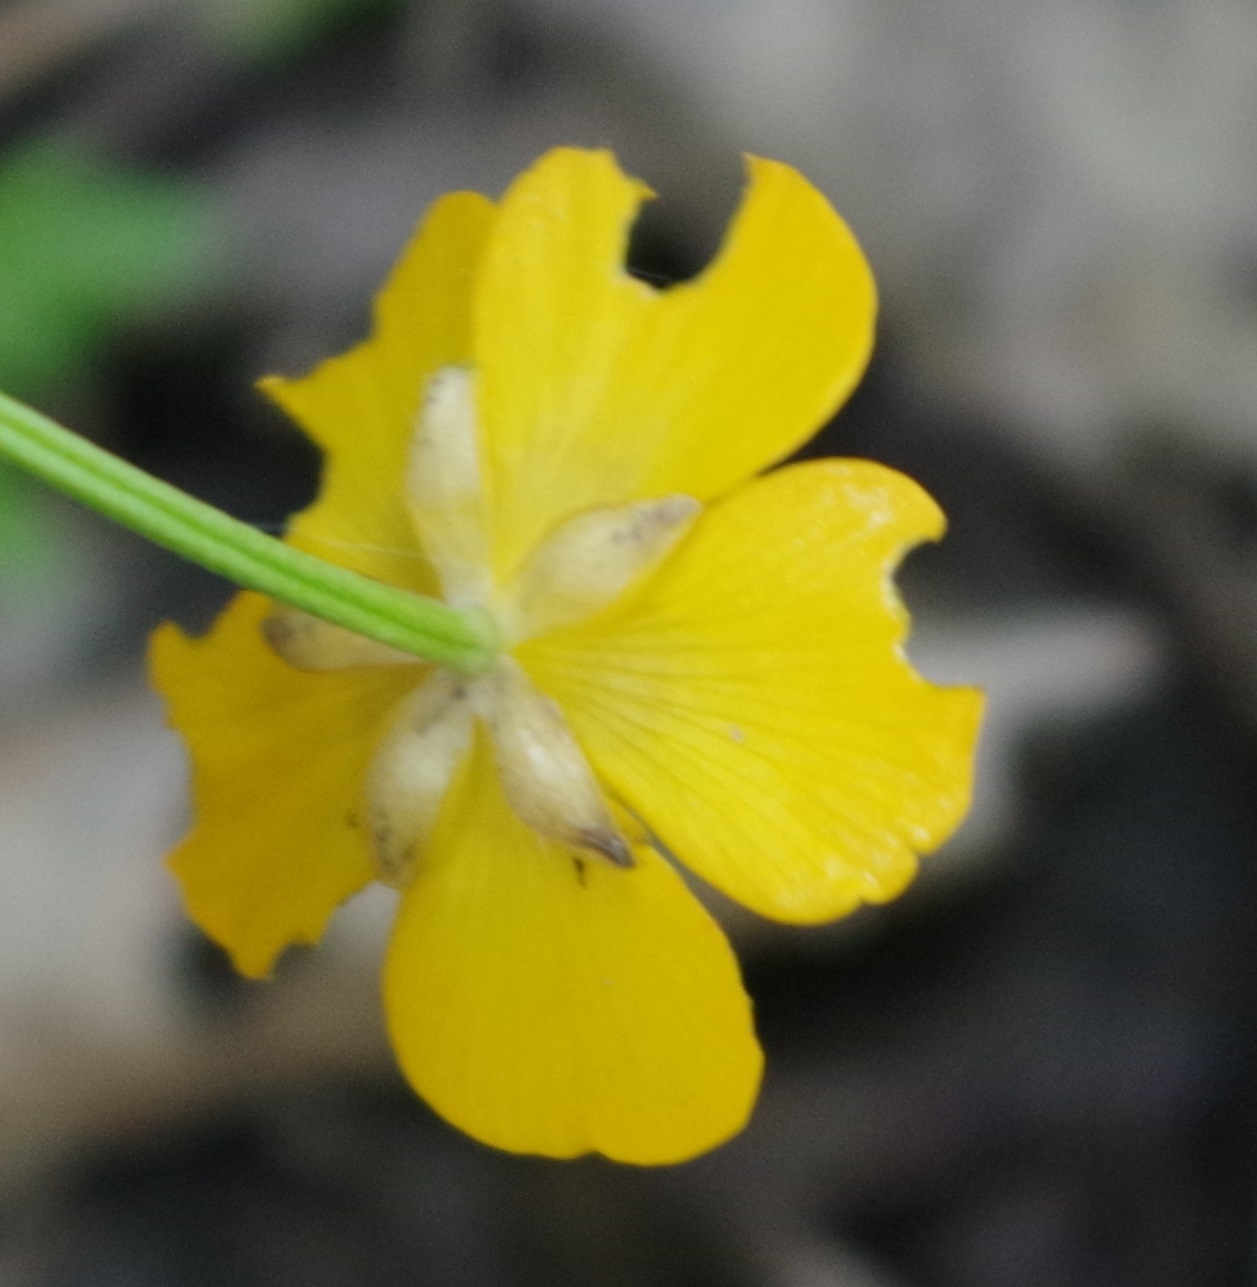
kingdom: Plantae
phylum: Tracheophyta
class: Magnoliopsida
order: Ranunculales
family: Ranunculaceae
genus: Ranunculus
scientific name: Ranunculus repens
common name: Creeping buttercup
